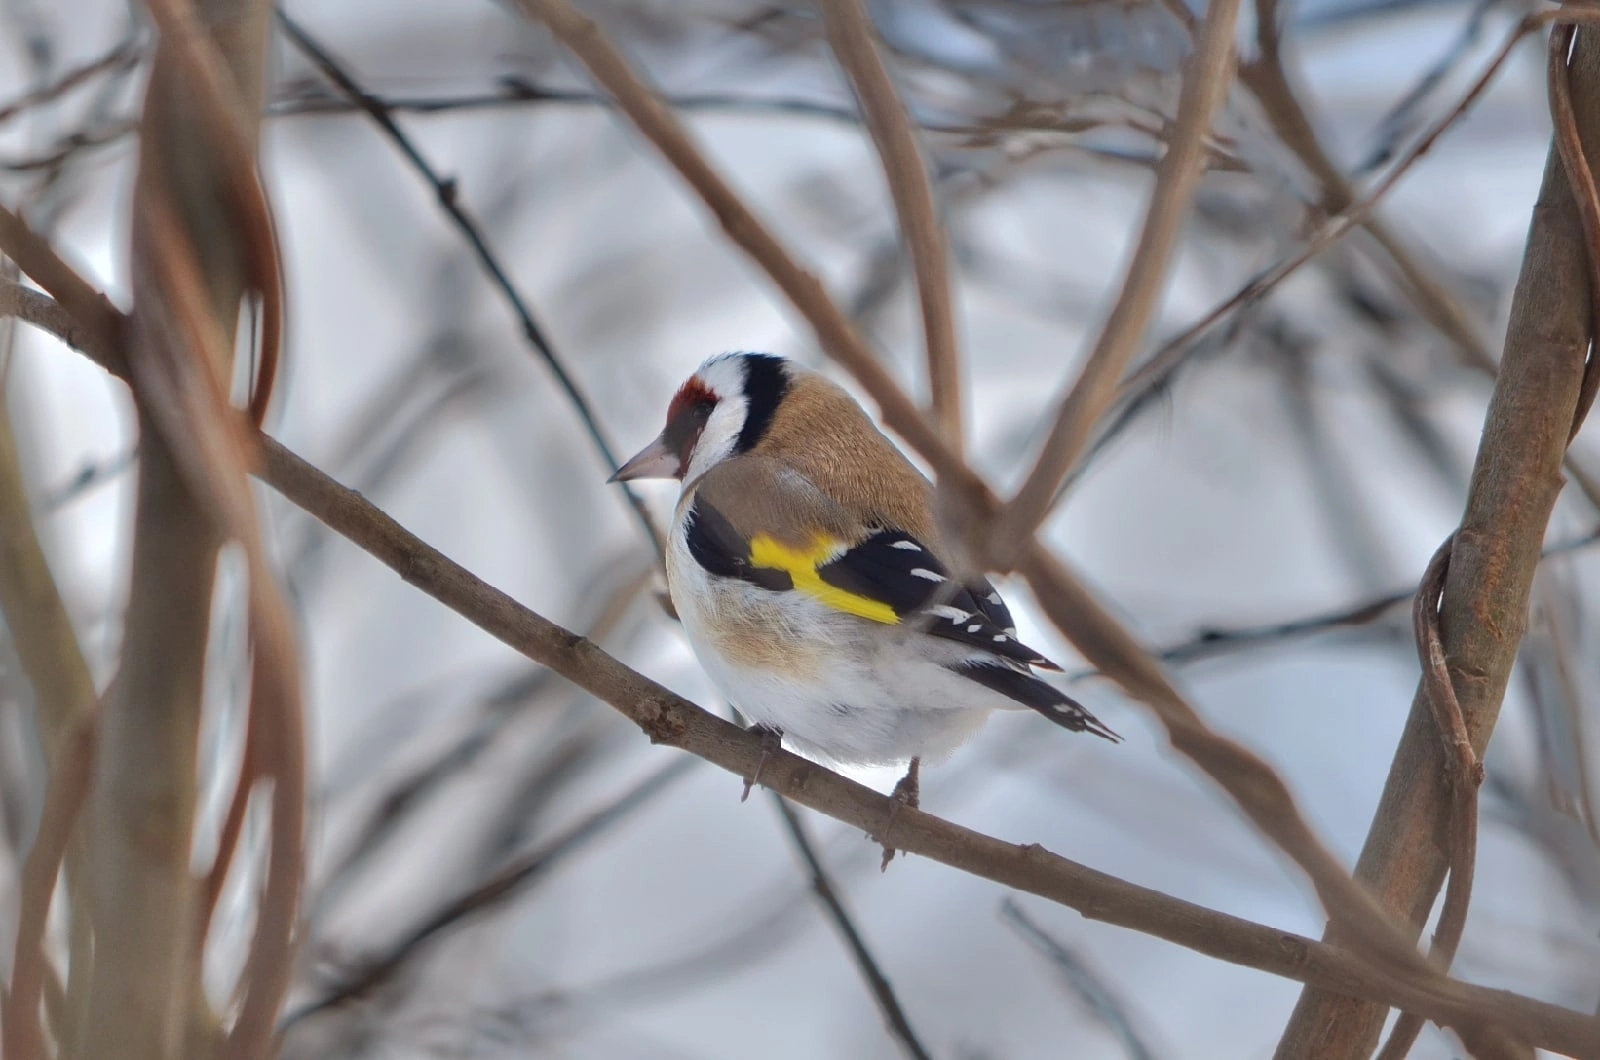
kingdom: Animalia
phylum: Chordata
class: Aves
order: Passeriformes
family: Fringillidae
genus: Carduelis
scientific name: Carduelis carduelis
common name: European goldfinch
